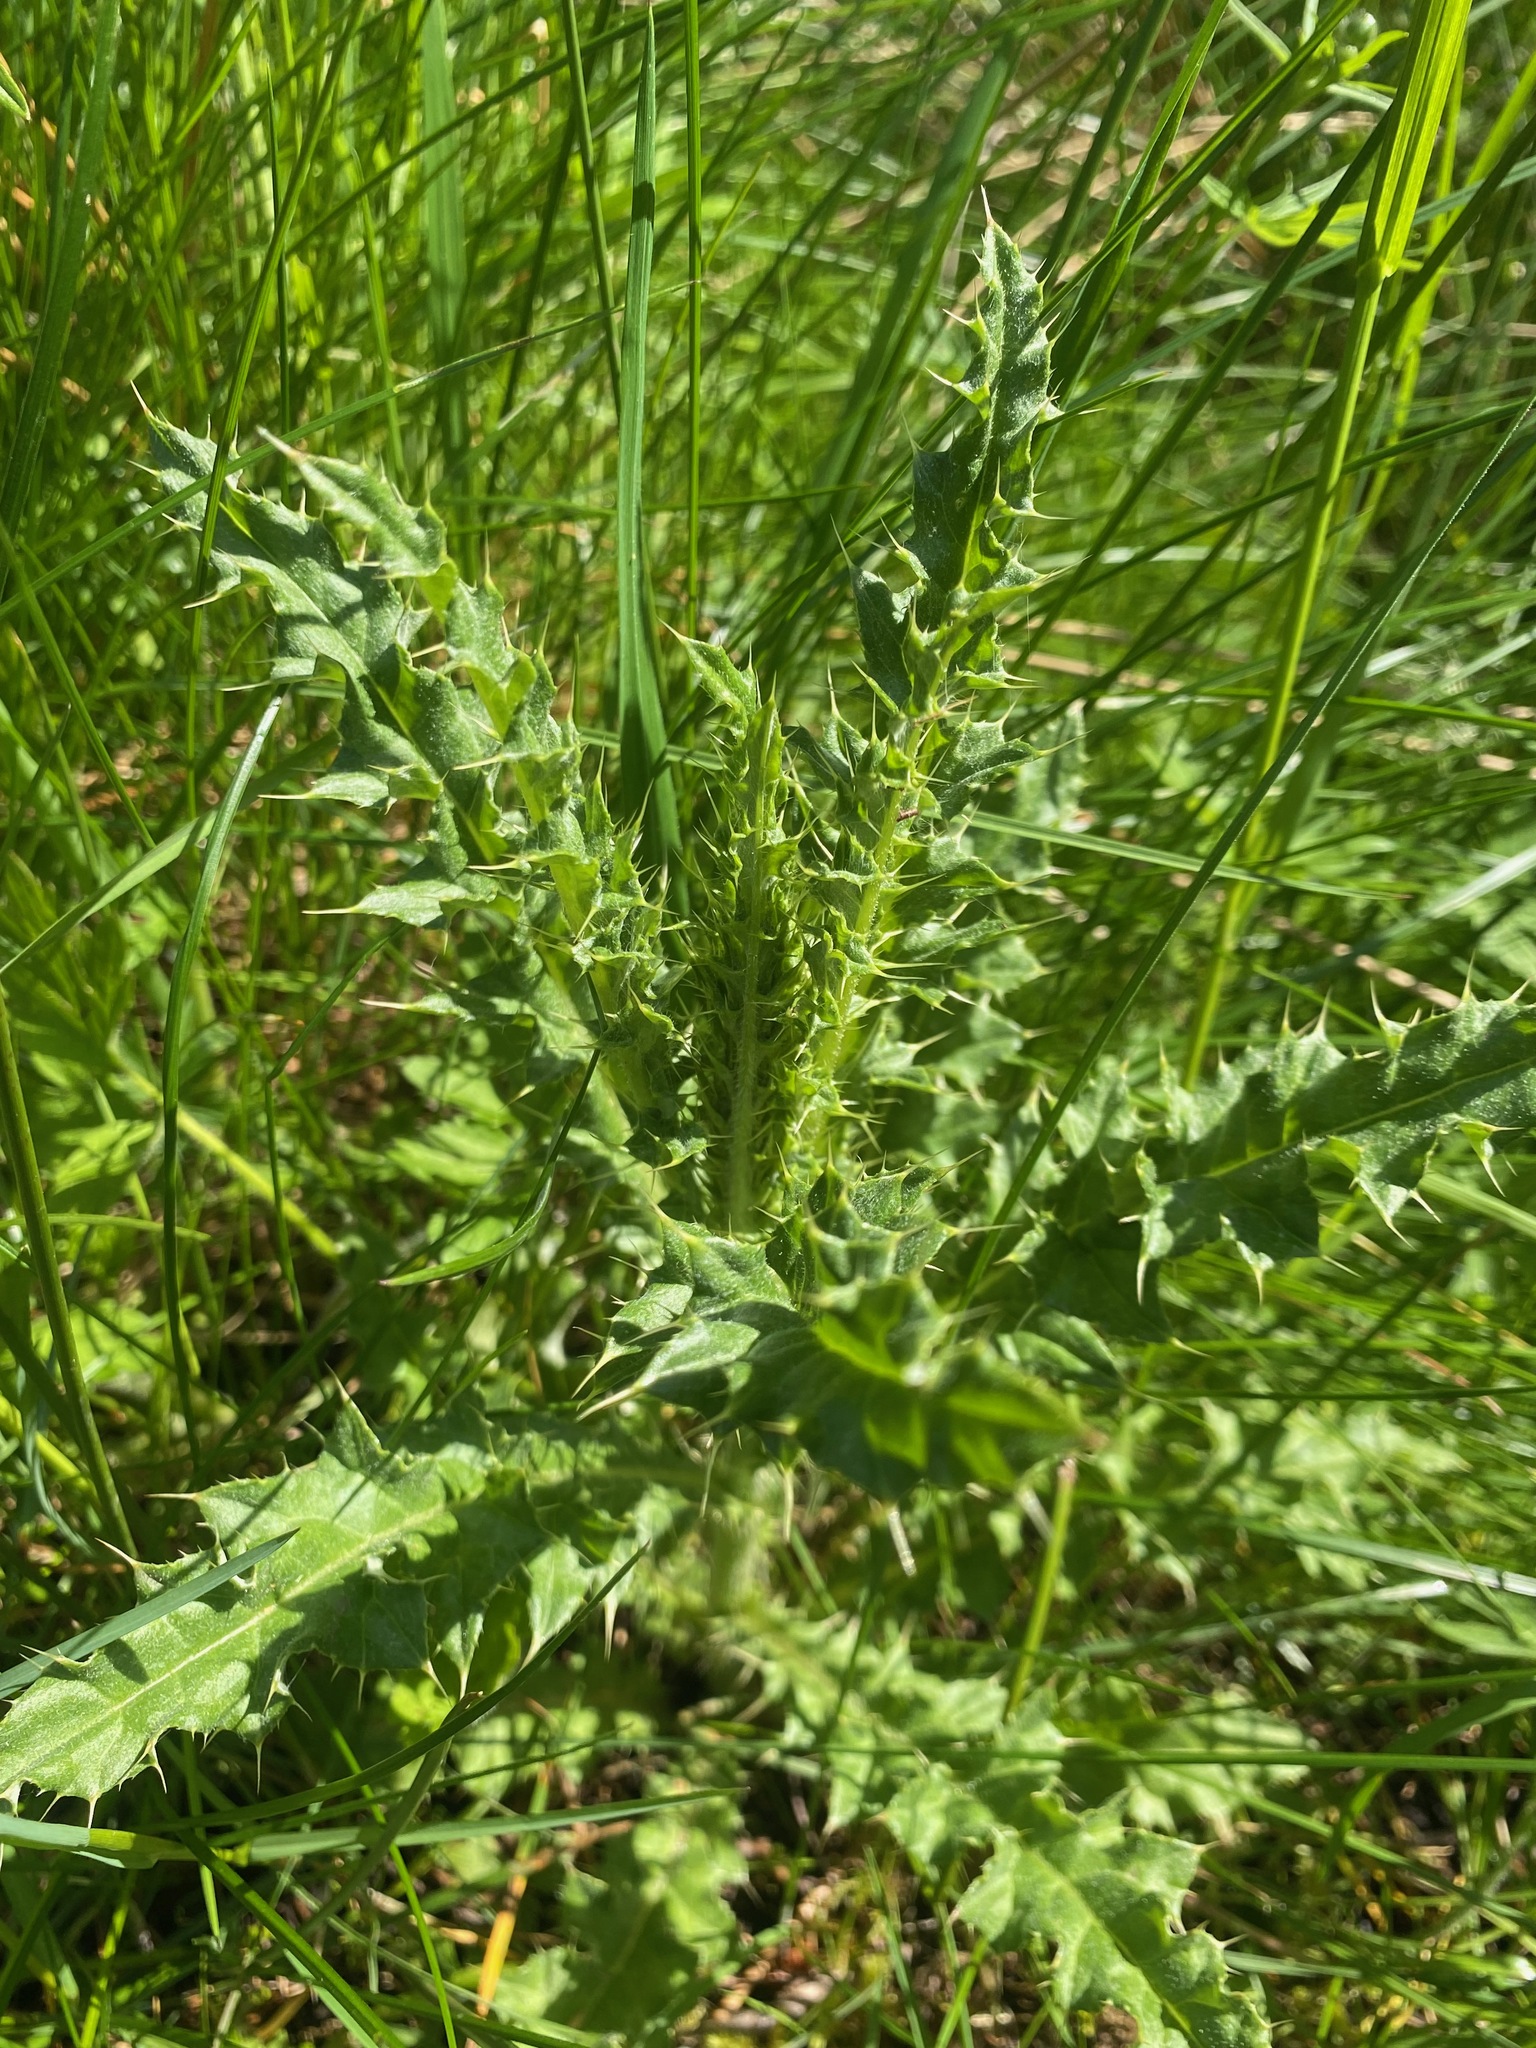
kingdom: Plantae
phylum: Tracheophyta
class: Magnoliopsida
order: Asterales
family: Asteraceae
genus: Cirsium
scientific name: Cirsium arvense
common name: Creeping thistle
